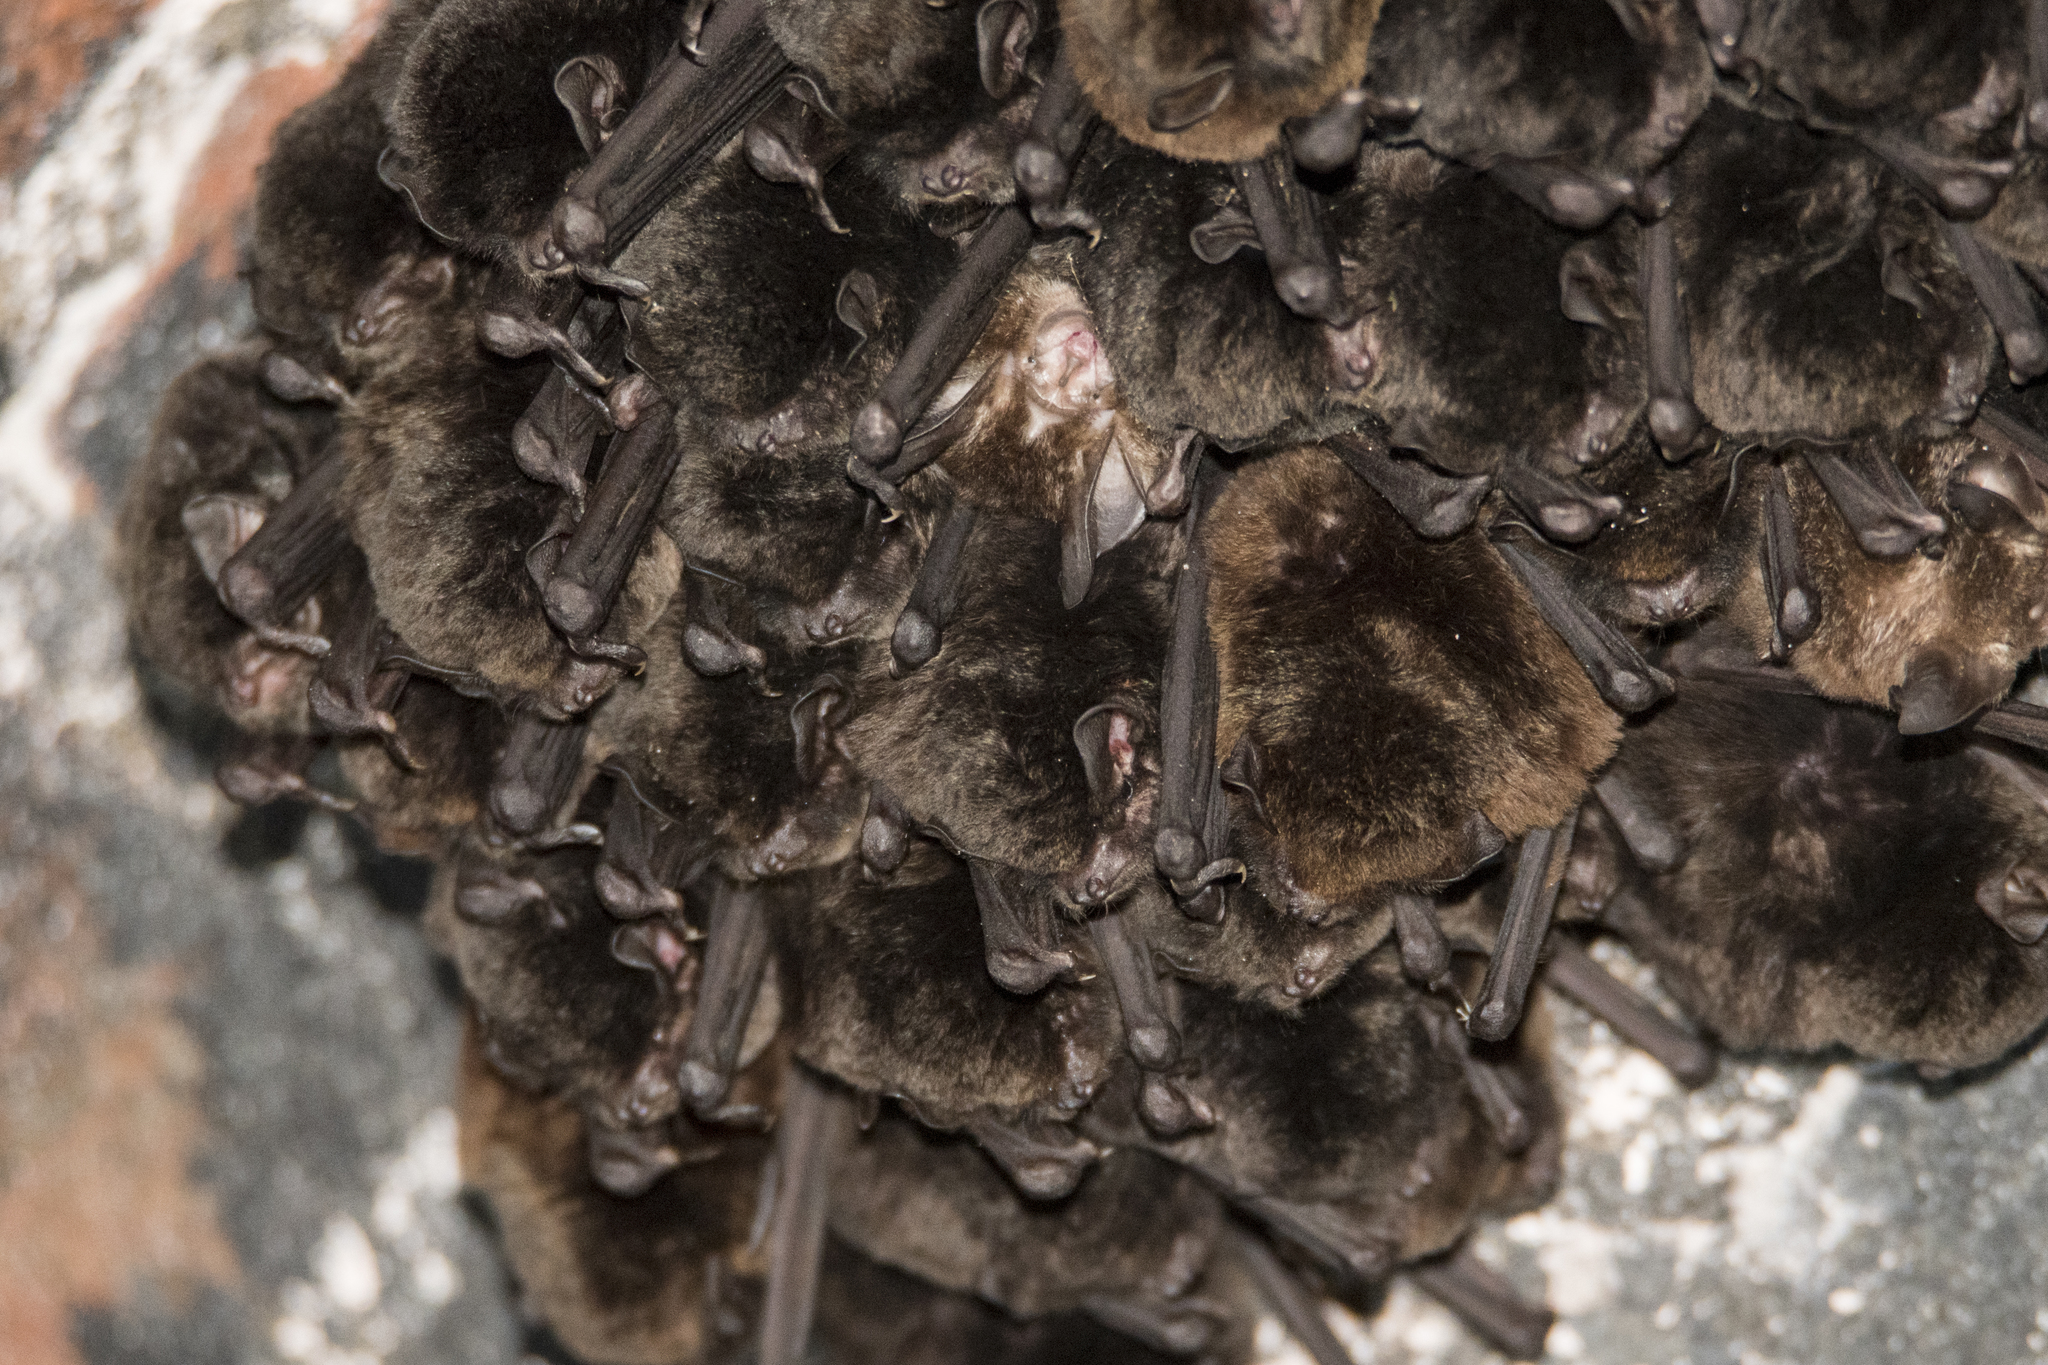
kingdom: Animalia
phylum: Chordata
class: Mammalia
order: Chiroptera
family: Miniopteridae
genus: Miniopterus
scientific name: Miniopterus fuliginosus
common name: Asian long-fingered bat
